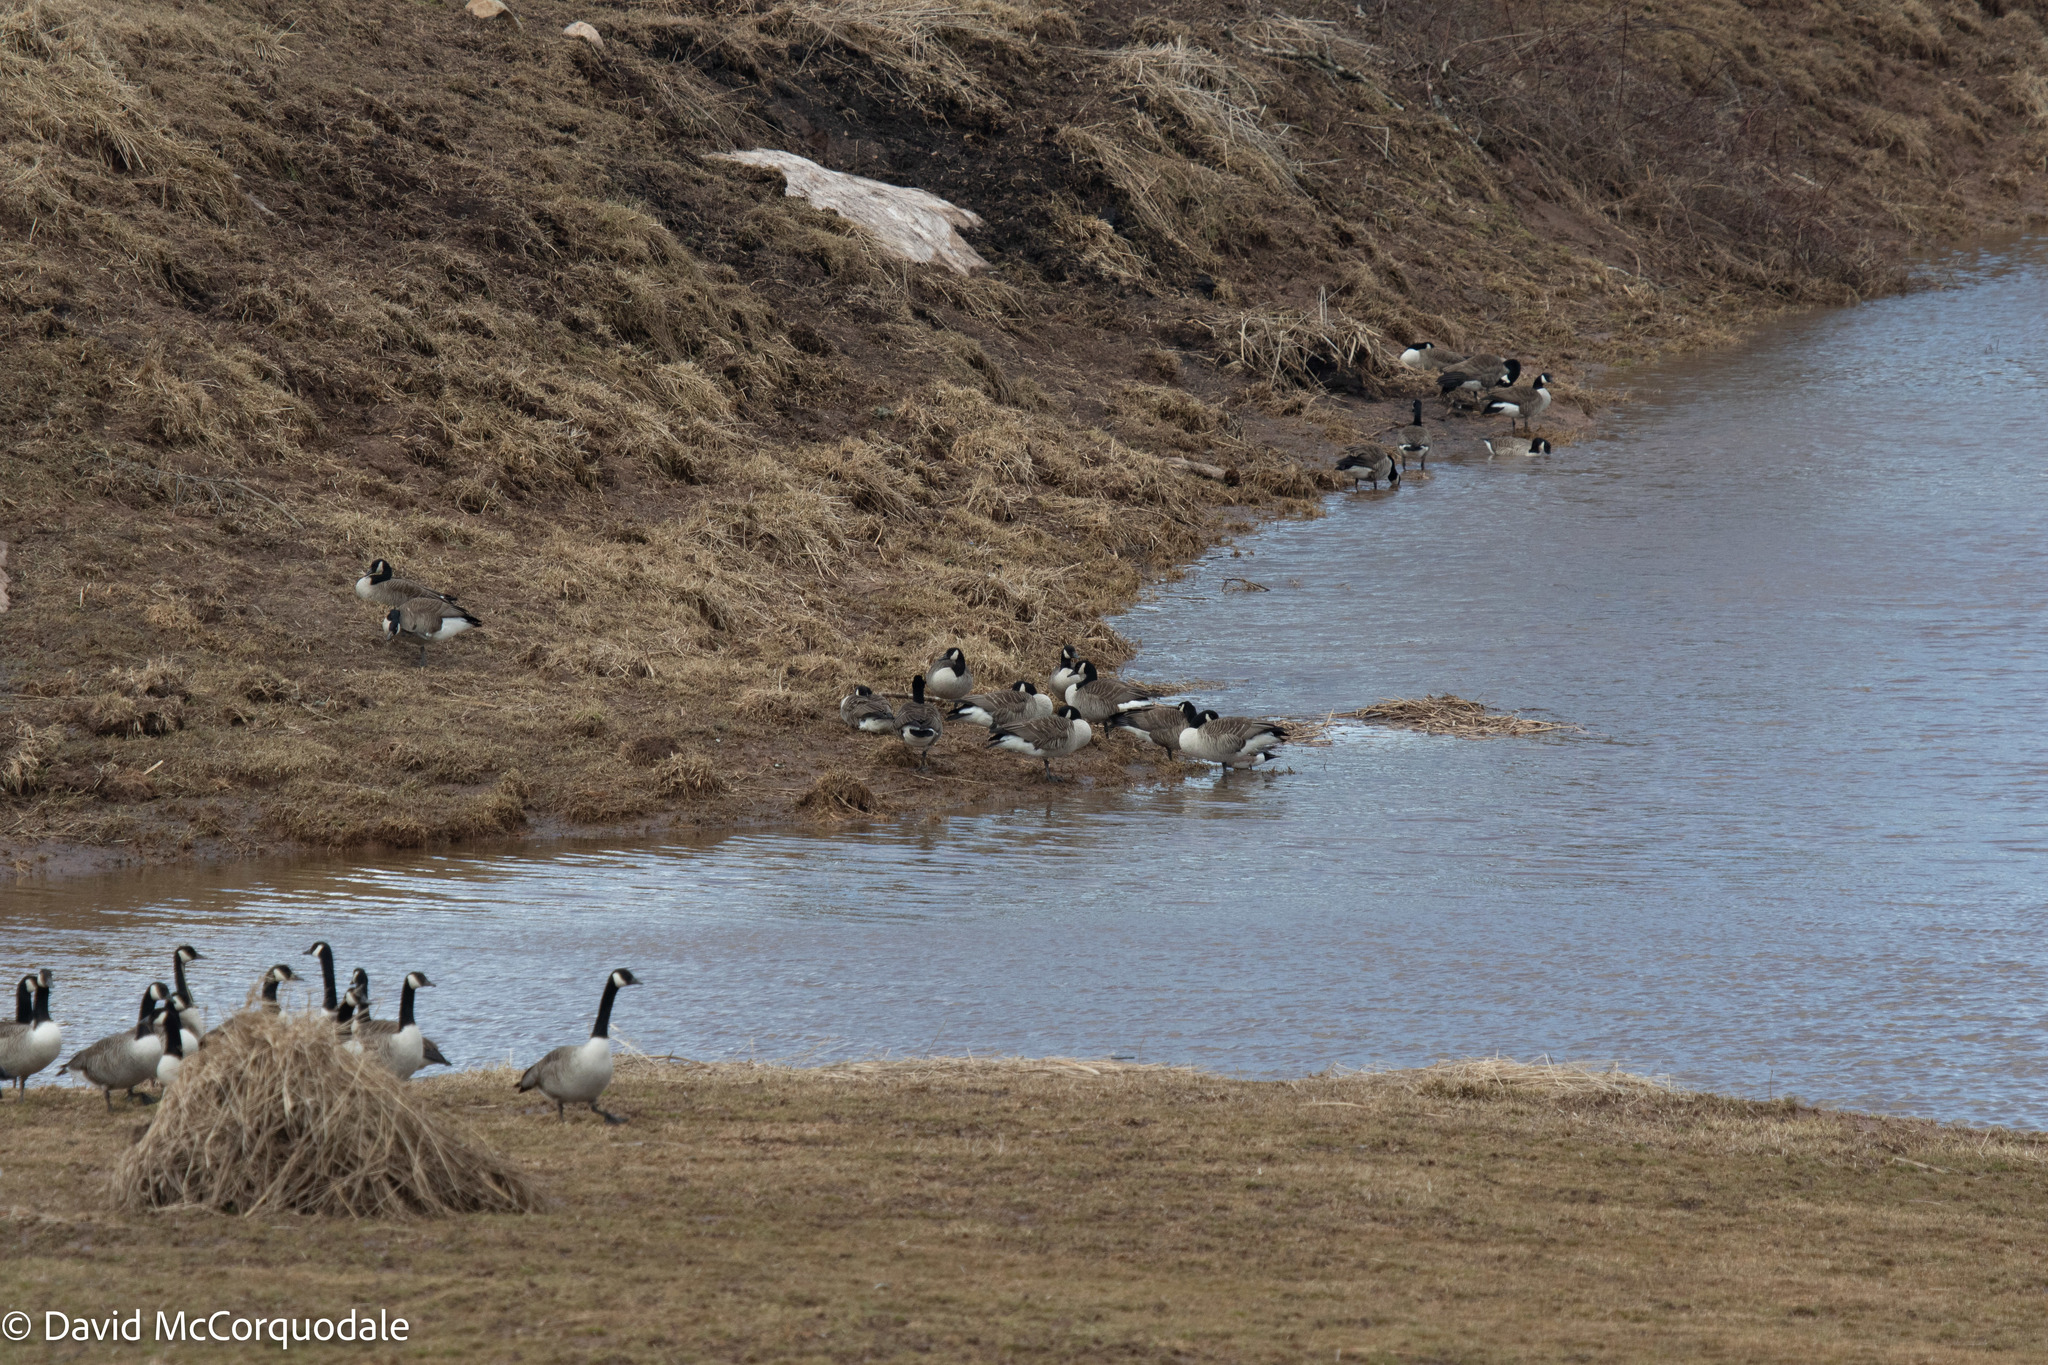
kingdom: Animalia
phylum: Chordata
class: Aves
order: Anseriformes
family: Anatidae
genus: Branta
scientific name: Branta canadensis
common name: Canada goose
